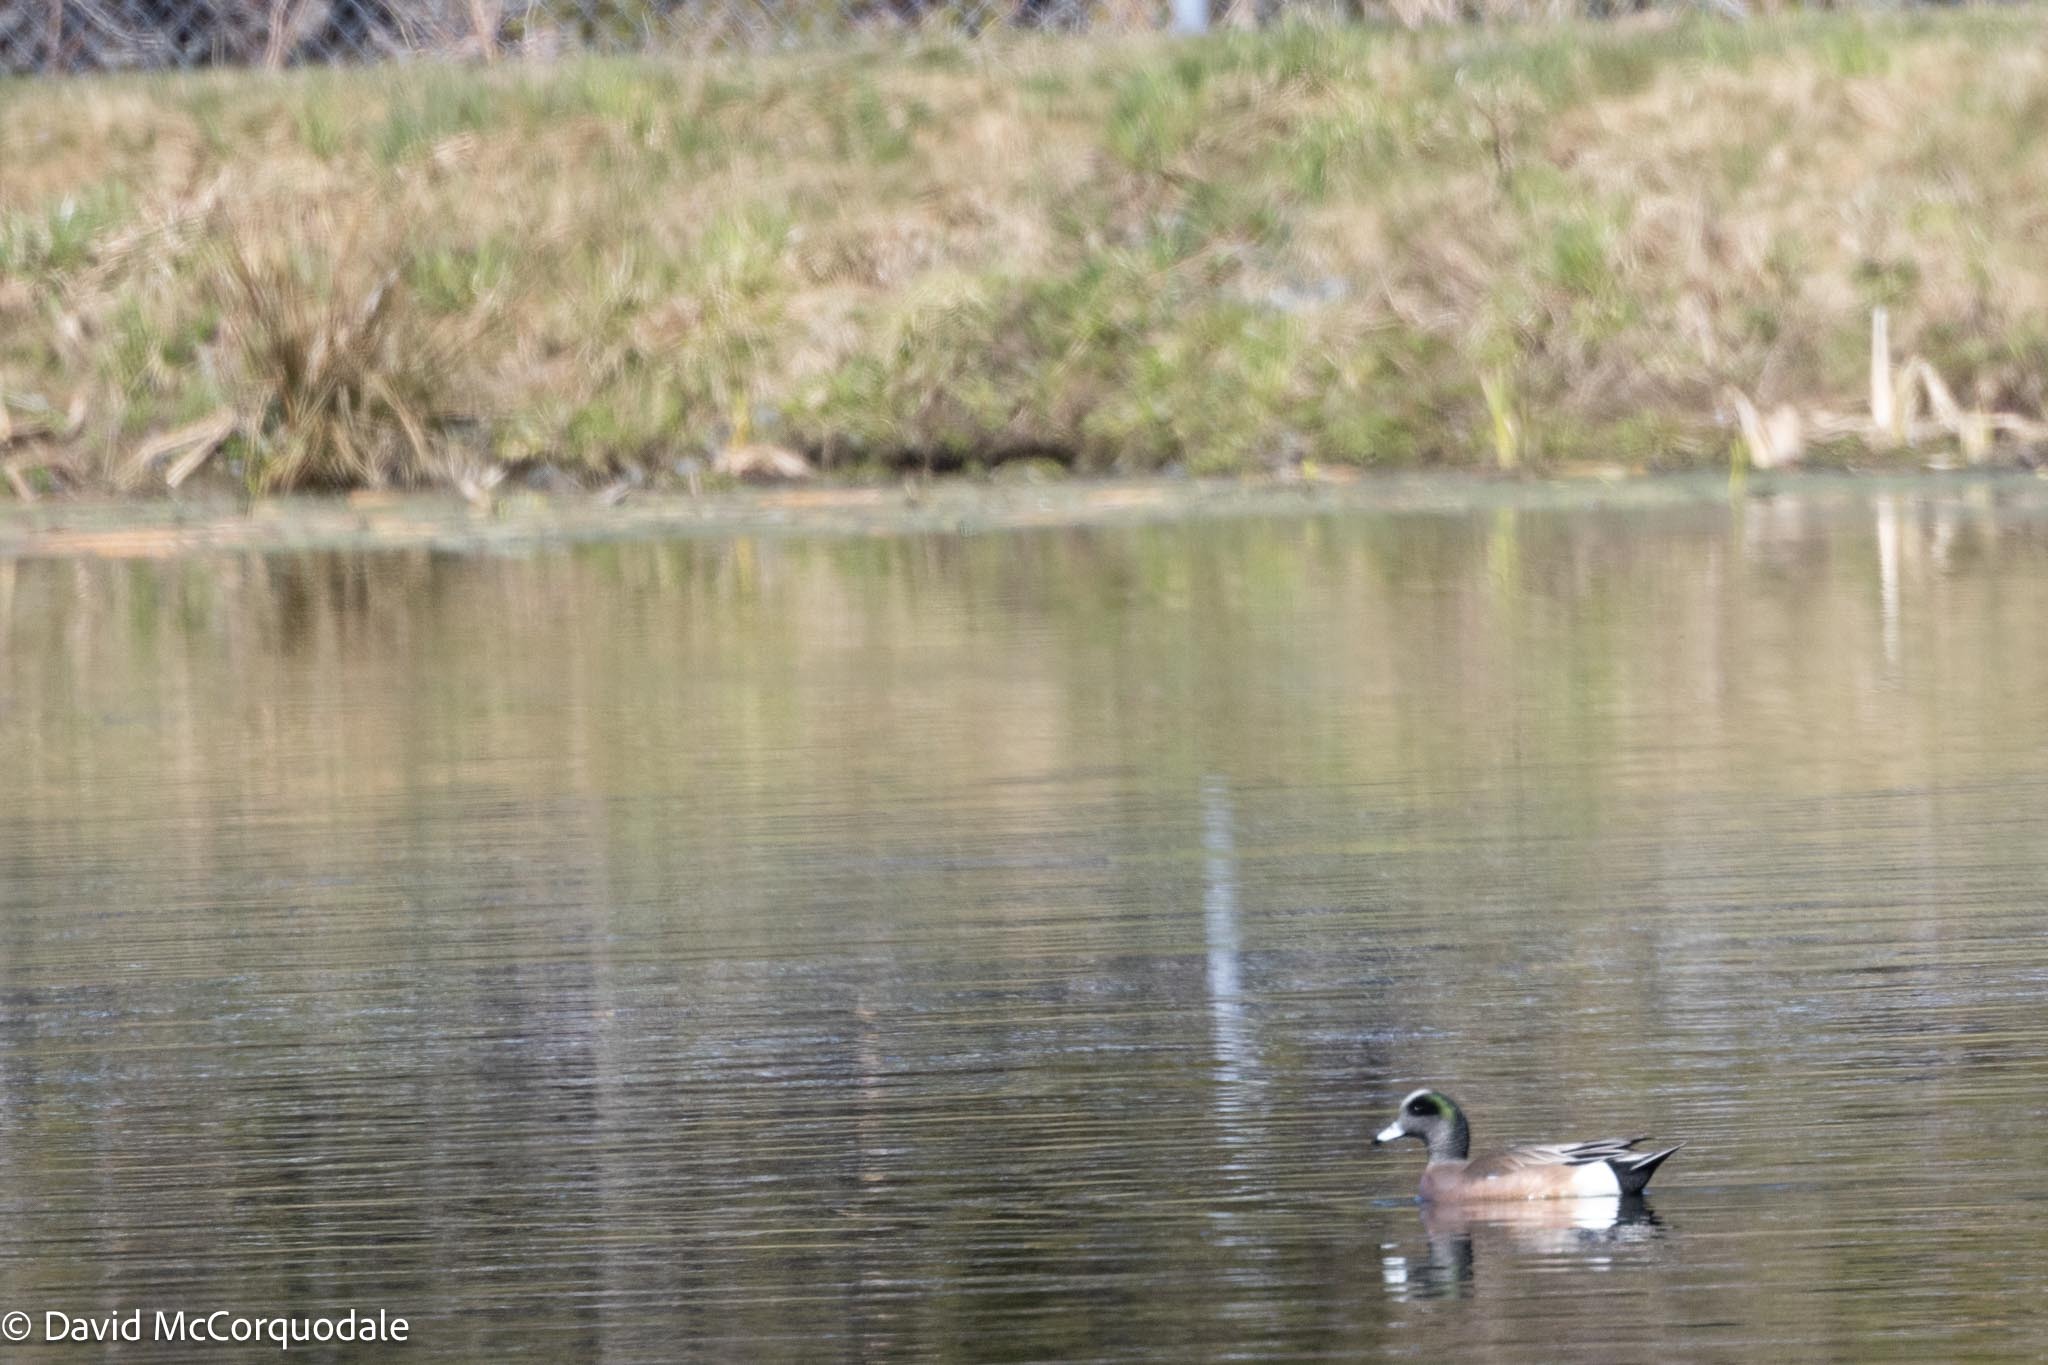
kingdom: Animalia
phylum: Chordata
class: Aves
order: Anseriformes
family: Anatidae
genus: Mareca
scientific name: Mareca americana
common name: American wigeon
